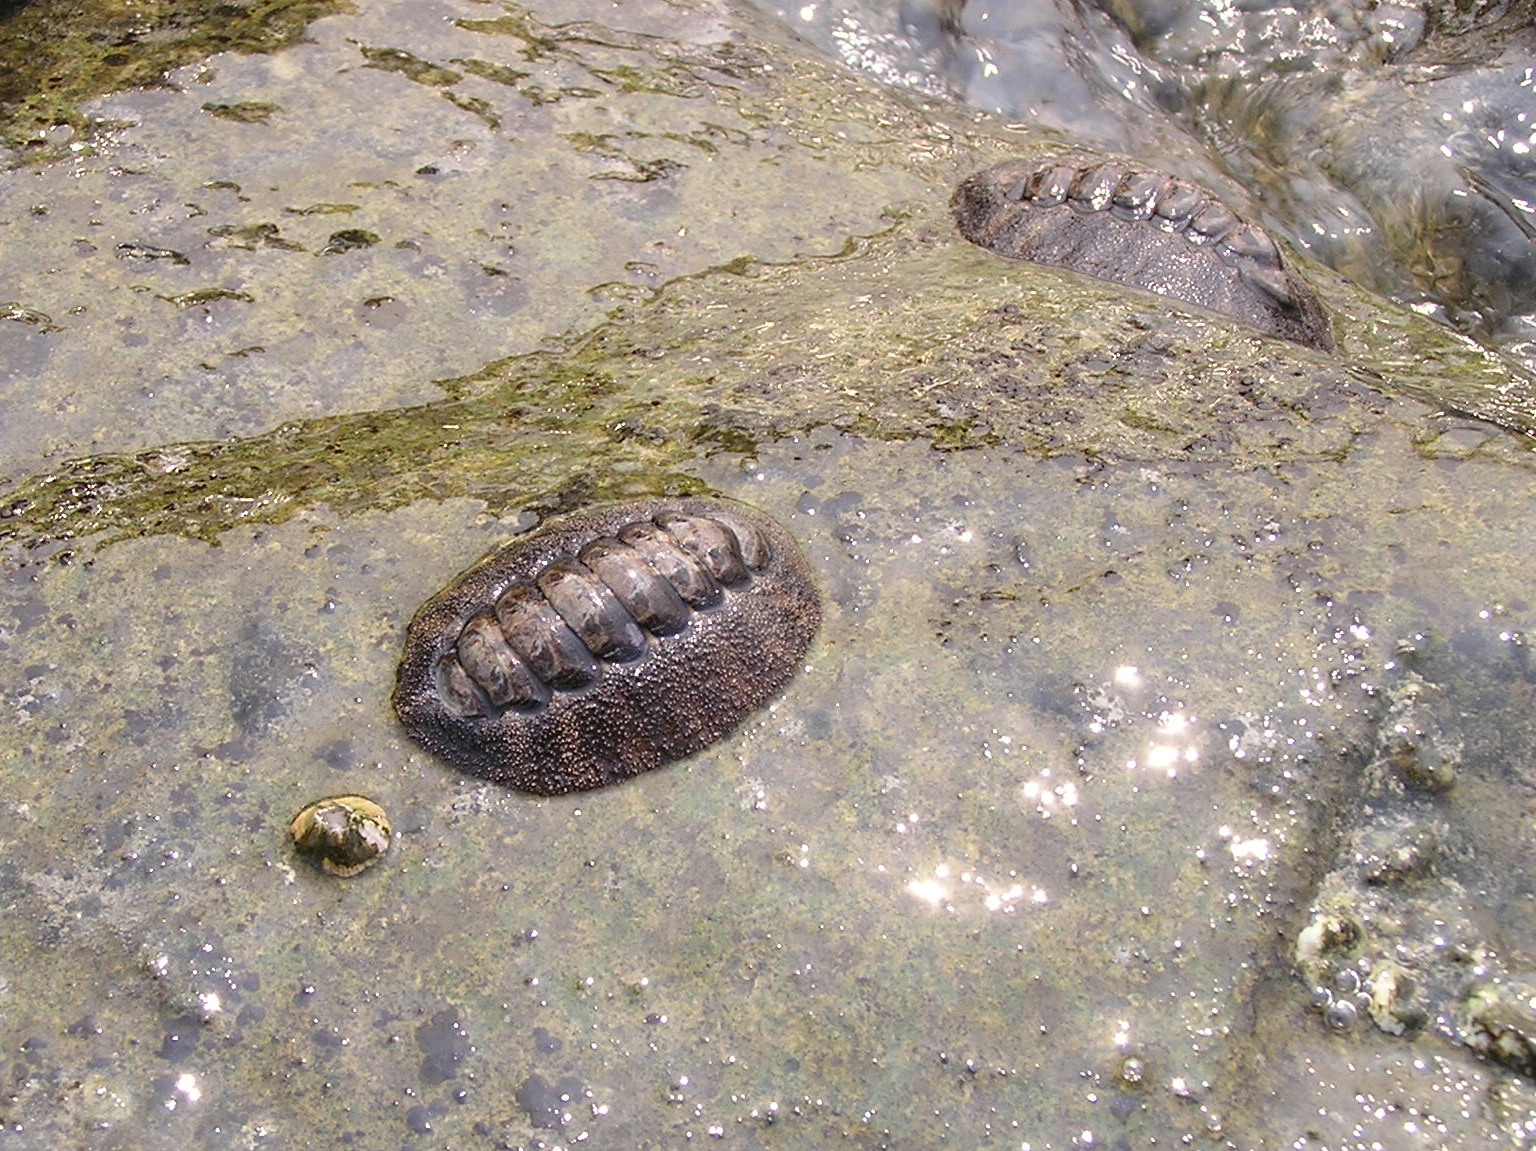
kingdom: Animalia
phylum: Mollusca
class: Polyplacophora
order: Chitonida
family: Chitonidae
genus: Acanthopleura
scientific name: Acanthopleura gemmata
